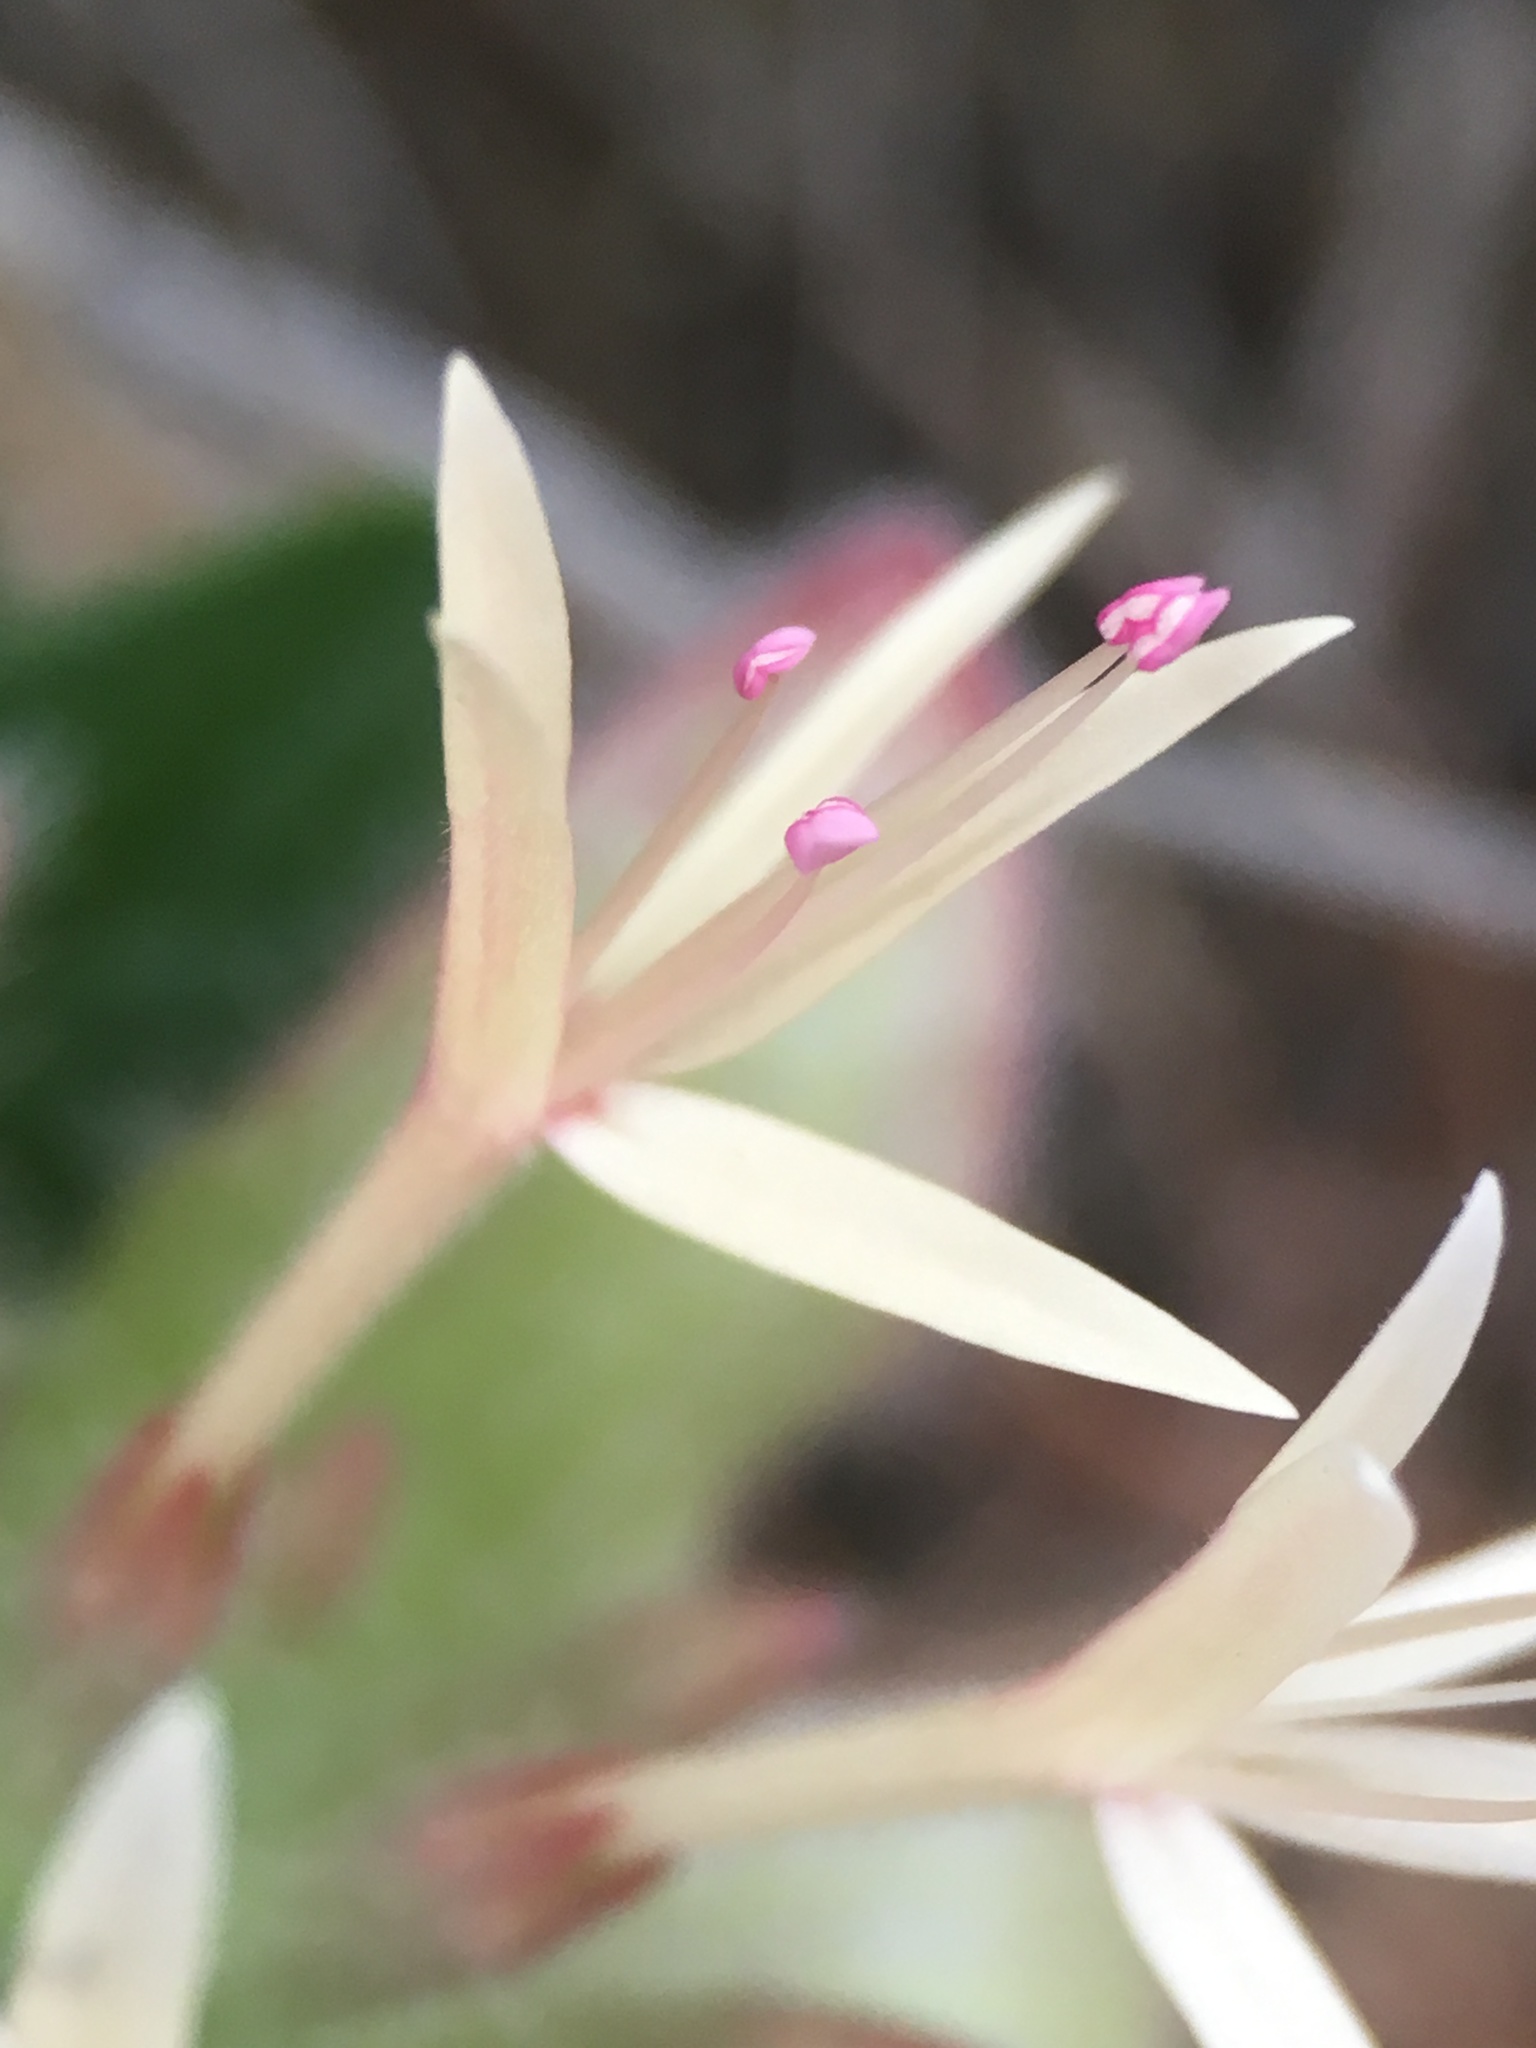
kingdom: Plantae
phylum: Tracheophyta
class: Magnoliopsida
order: Lamiales
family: Lamiaceae
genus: Monardella
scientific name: Monardella nana
